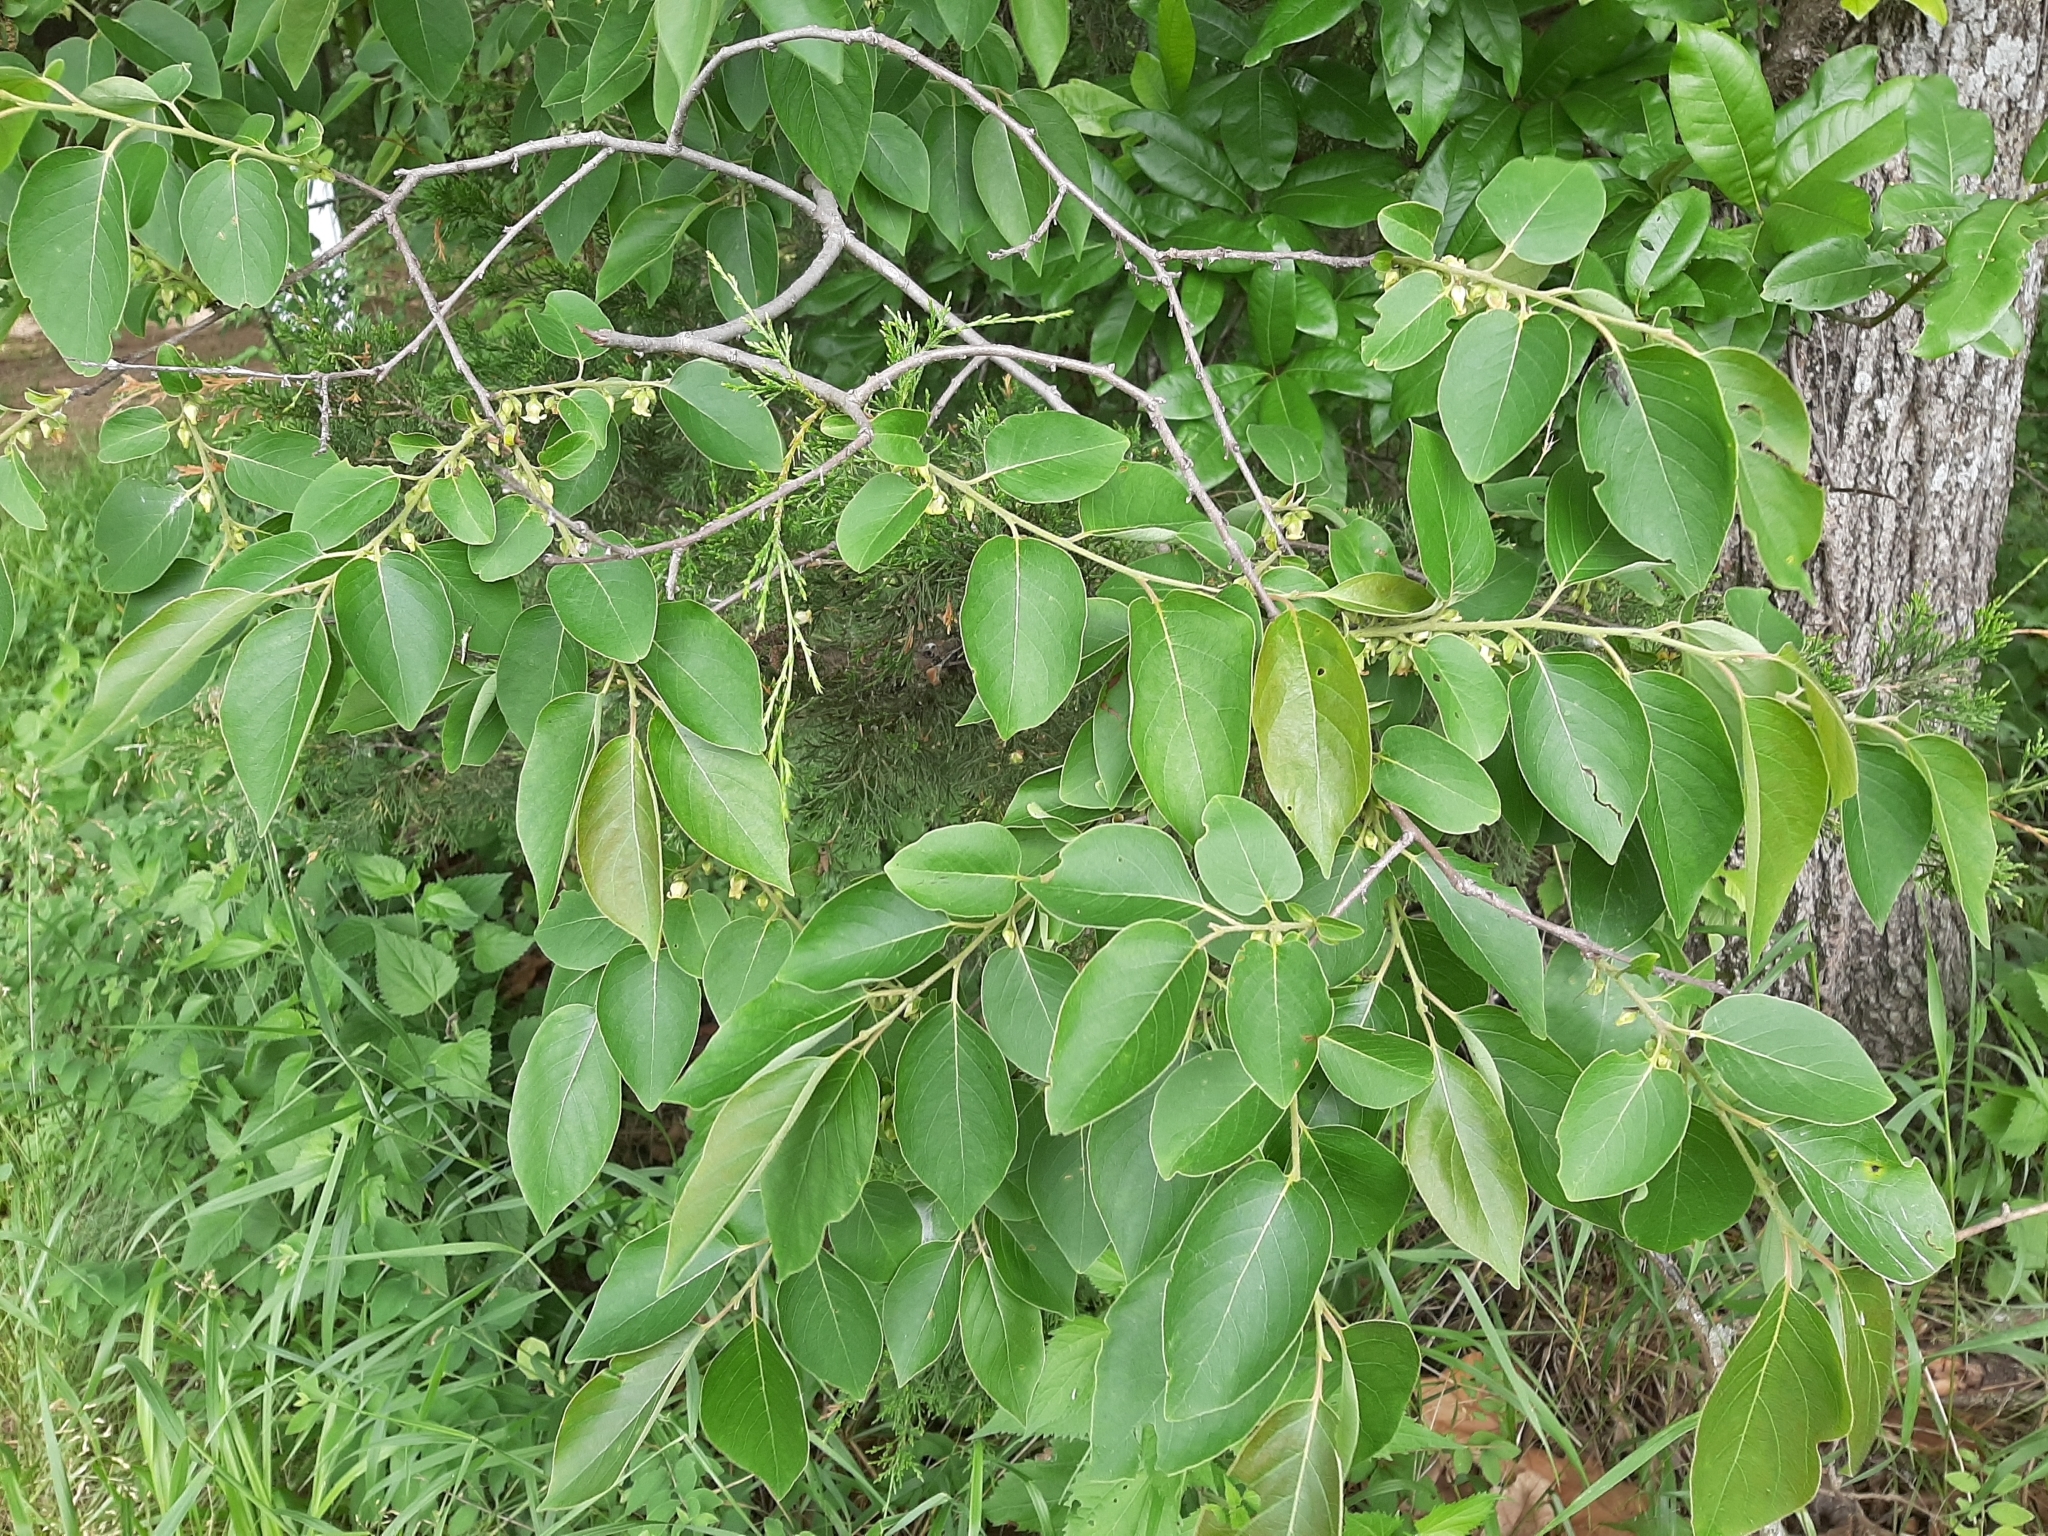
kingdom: Plantae
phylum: Tracheophyta
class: Magnoliopsida
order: Ericales
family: Ebenaceae
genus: Diospyros
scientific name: Diospyros virginiana
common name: Persimmon
